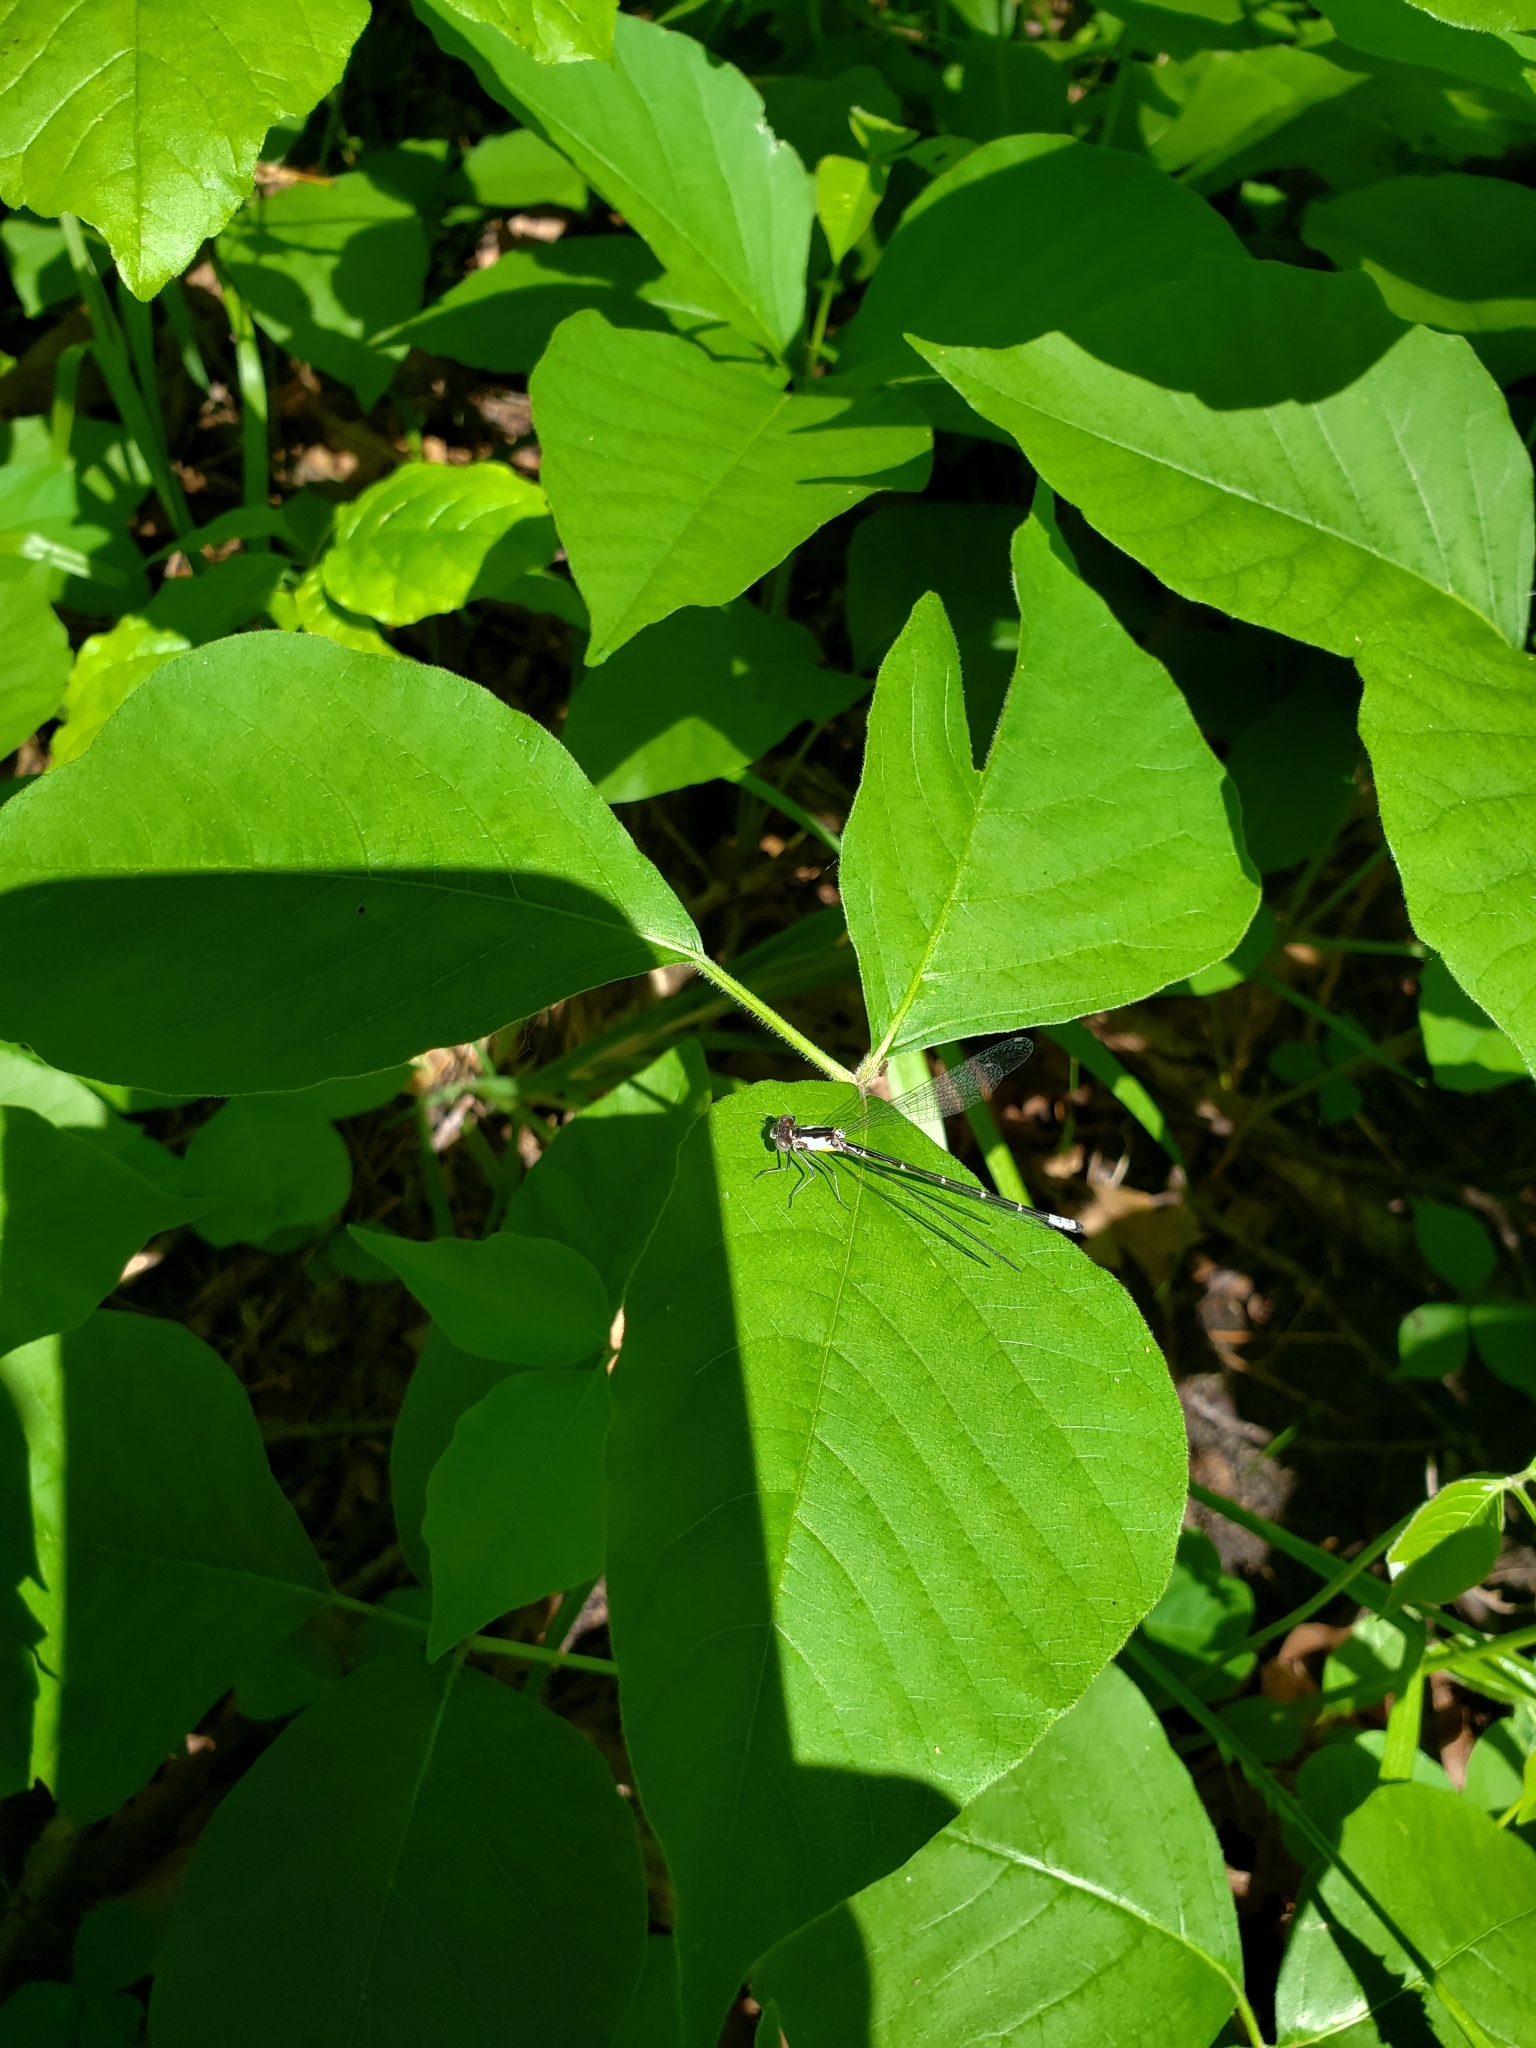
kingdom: Animalia
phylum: Arthropoda
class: Insecta
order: Odonata
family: Coenagrionidae
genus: Chromagrion
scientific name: Chromagrion conditum
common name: Aurora damsel
